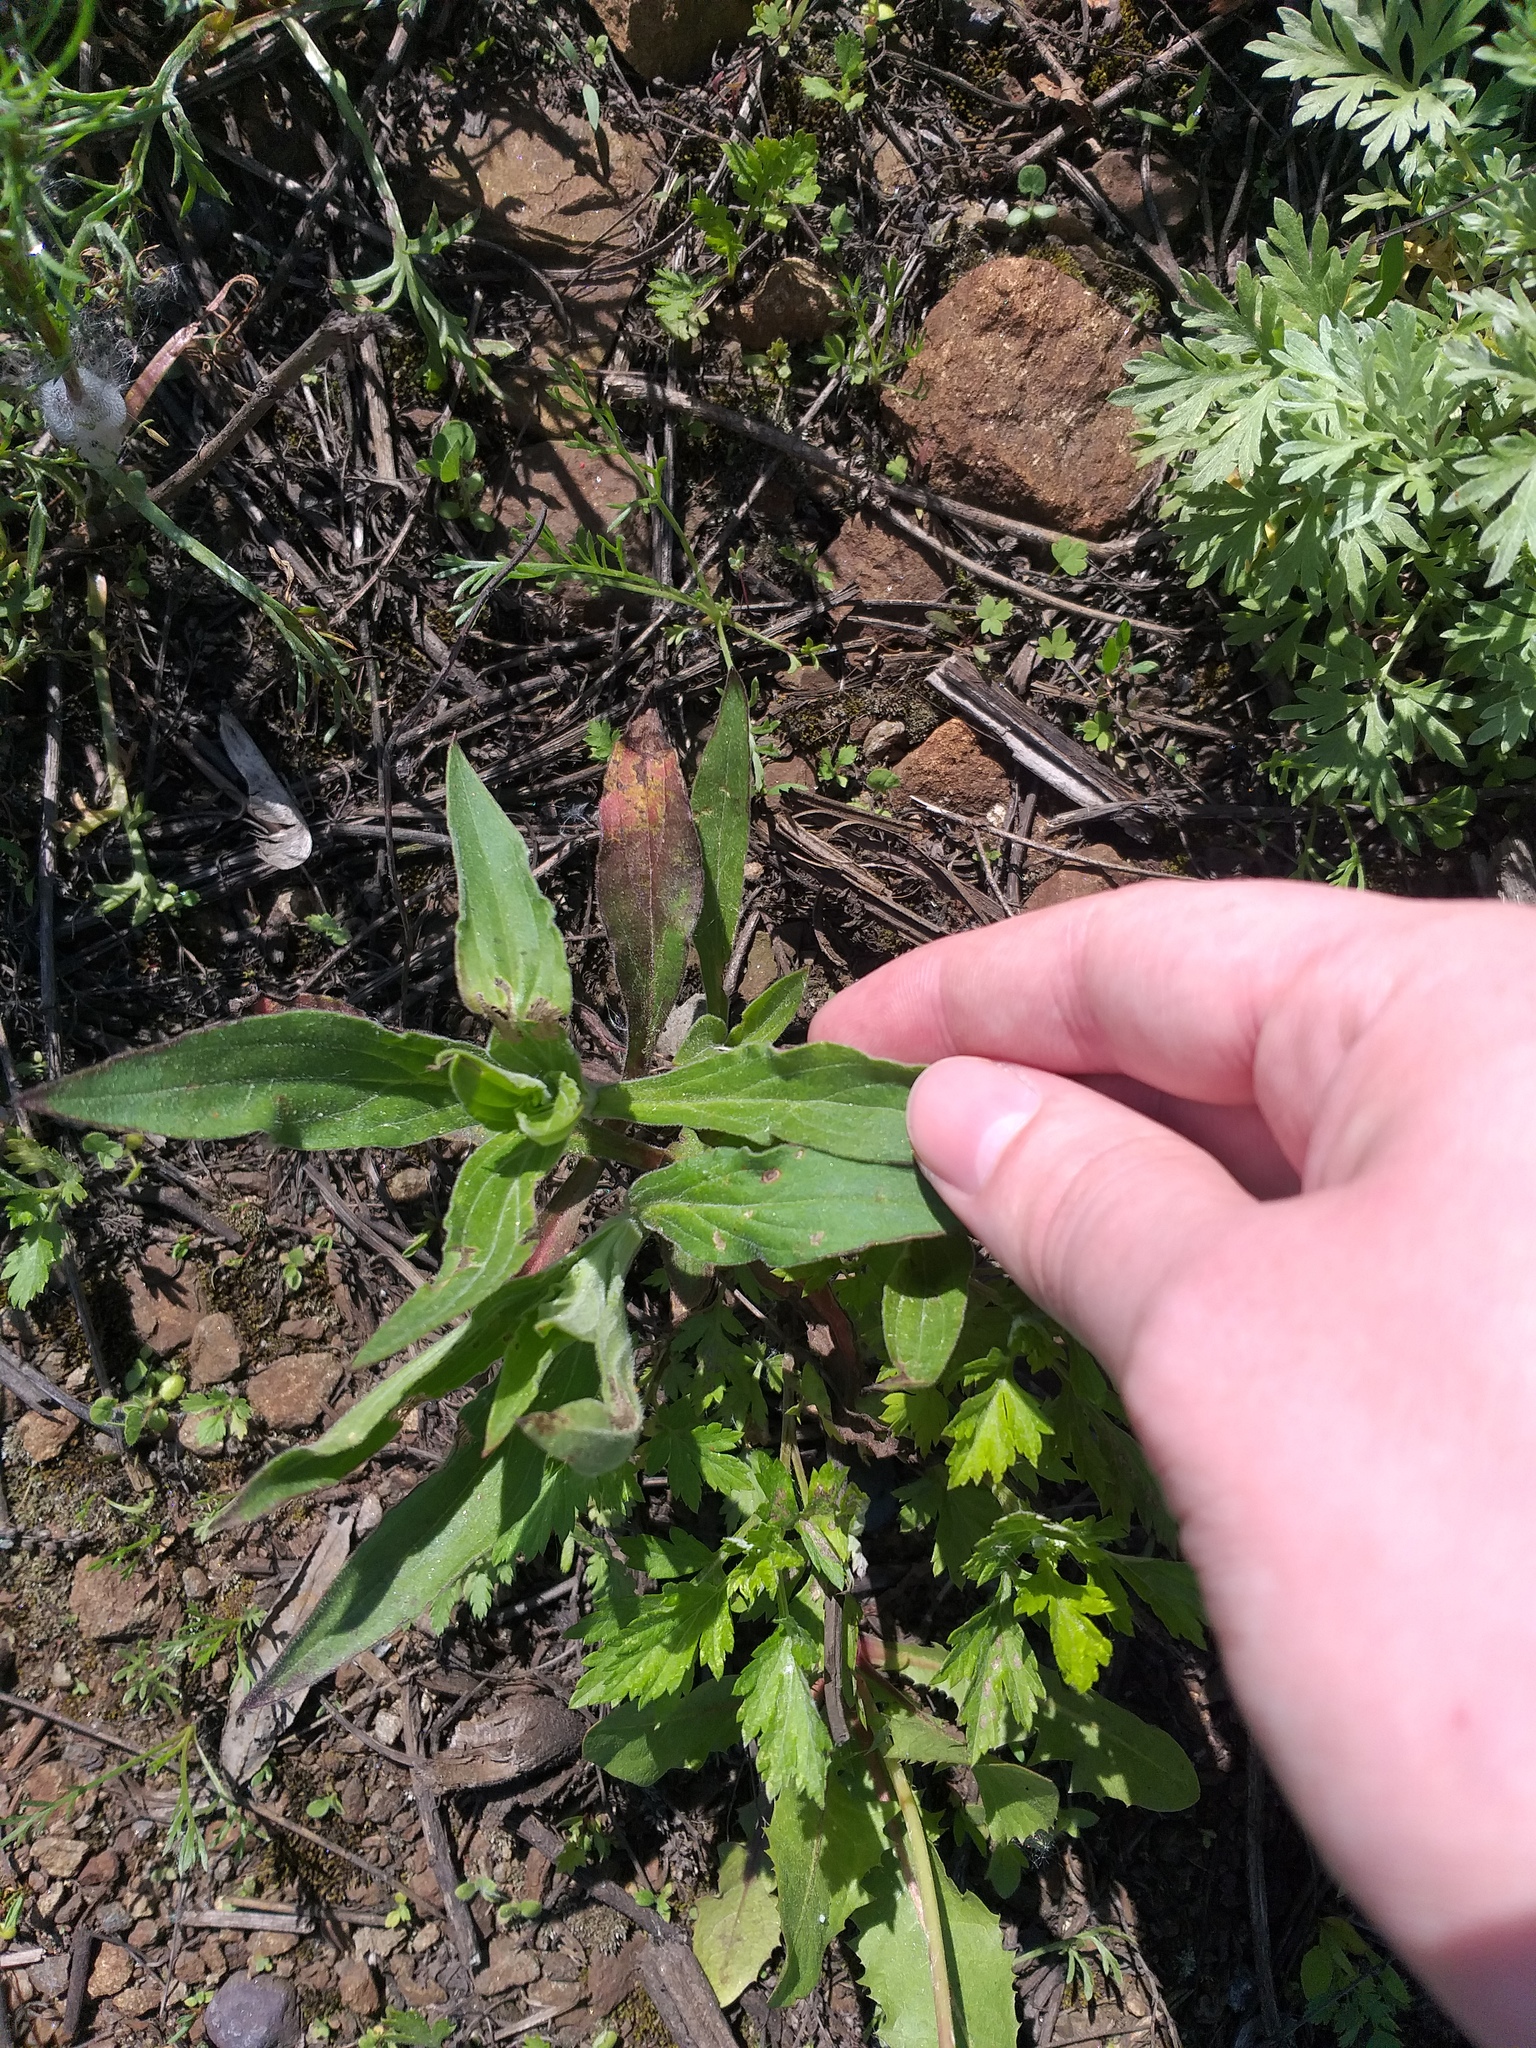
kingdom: Plantae
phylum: Tracheophyta
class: Magnoliopsida
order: Caryophyllales
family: Caryophyllaceae
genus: Silene
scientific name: Silene latifolia
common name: White campion
